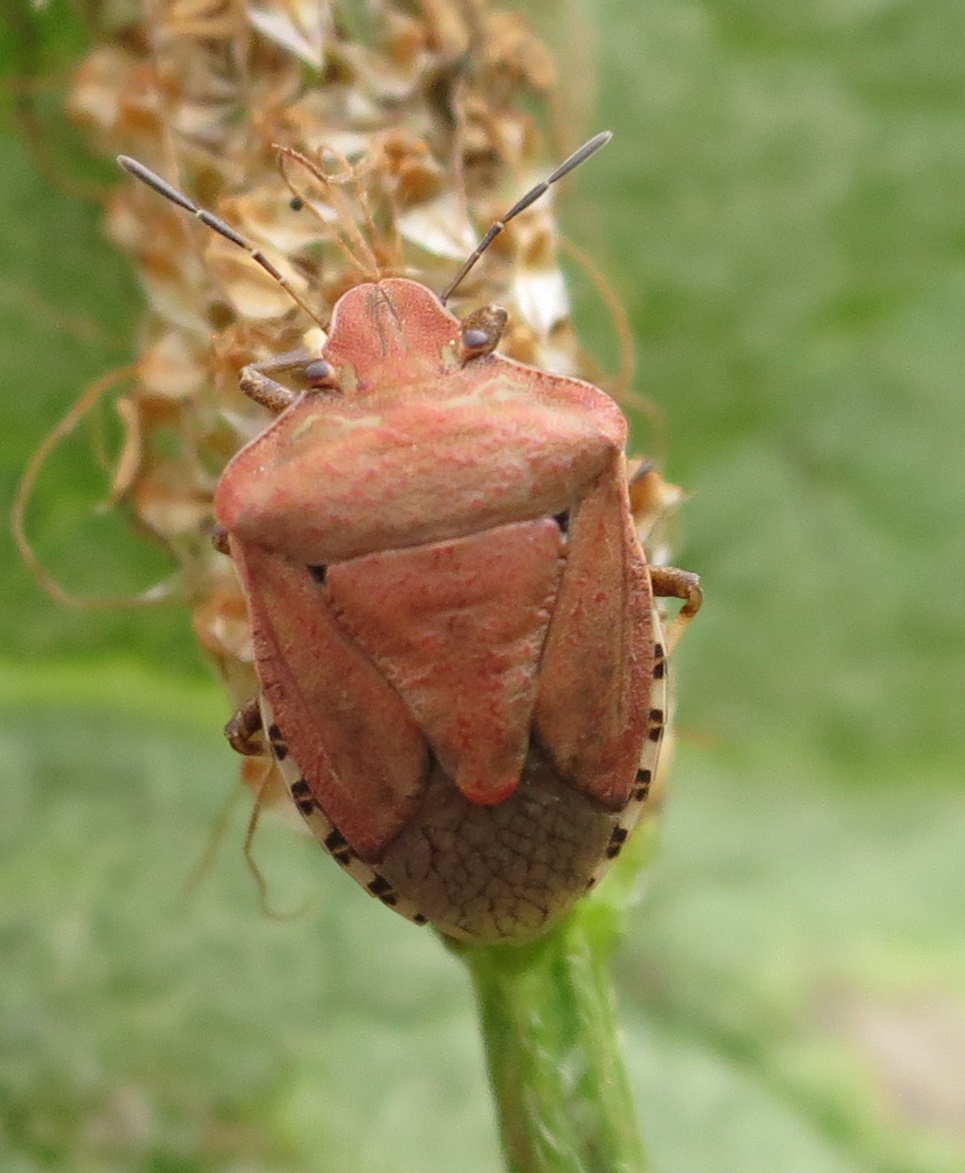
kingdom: Animalia
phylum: Arthropoda
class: Insecta
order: Hemiptera
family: Pentatomidae
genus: Dictyotus
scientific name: Dictyotus caenosus
